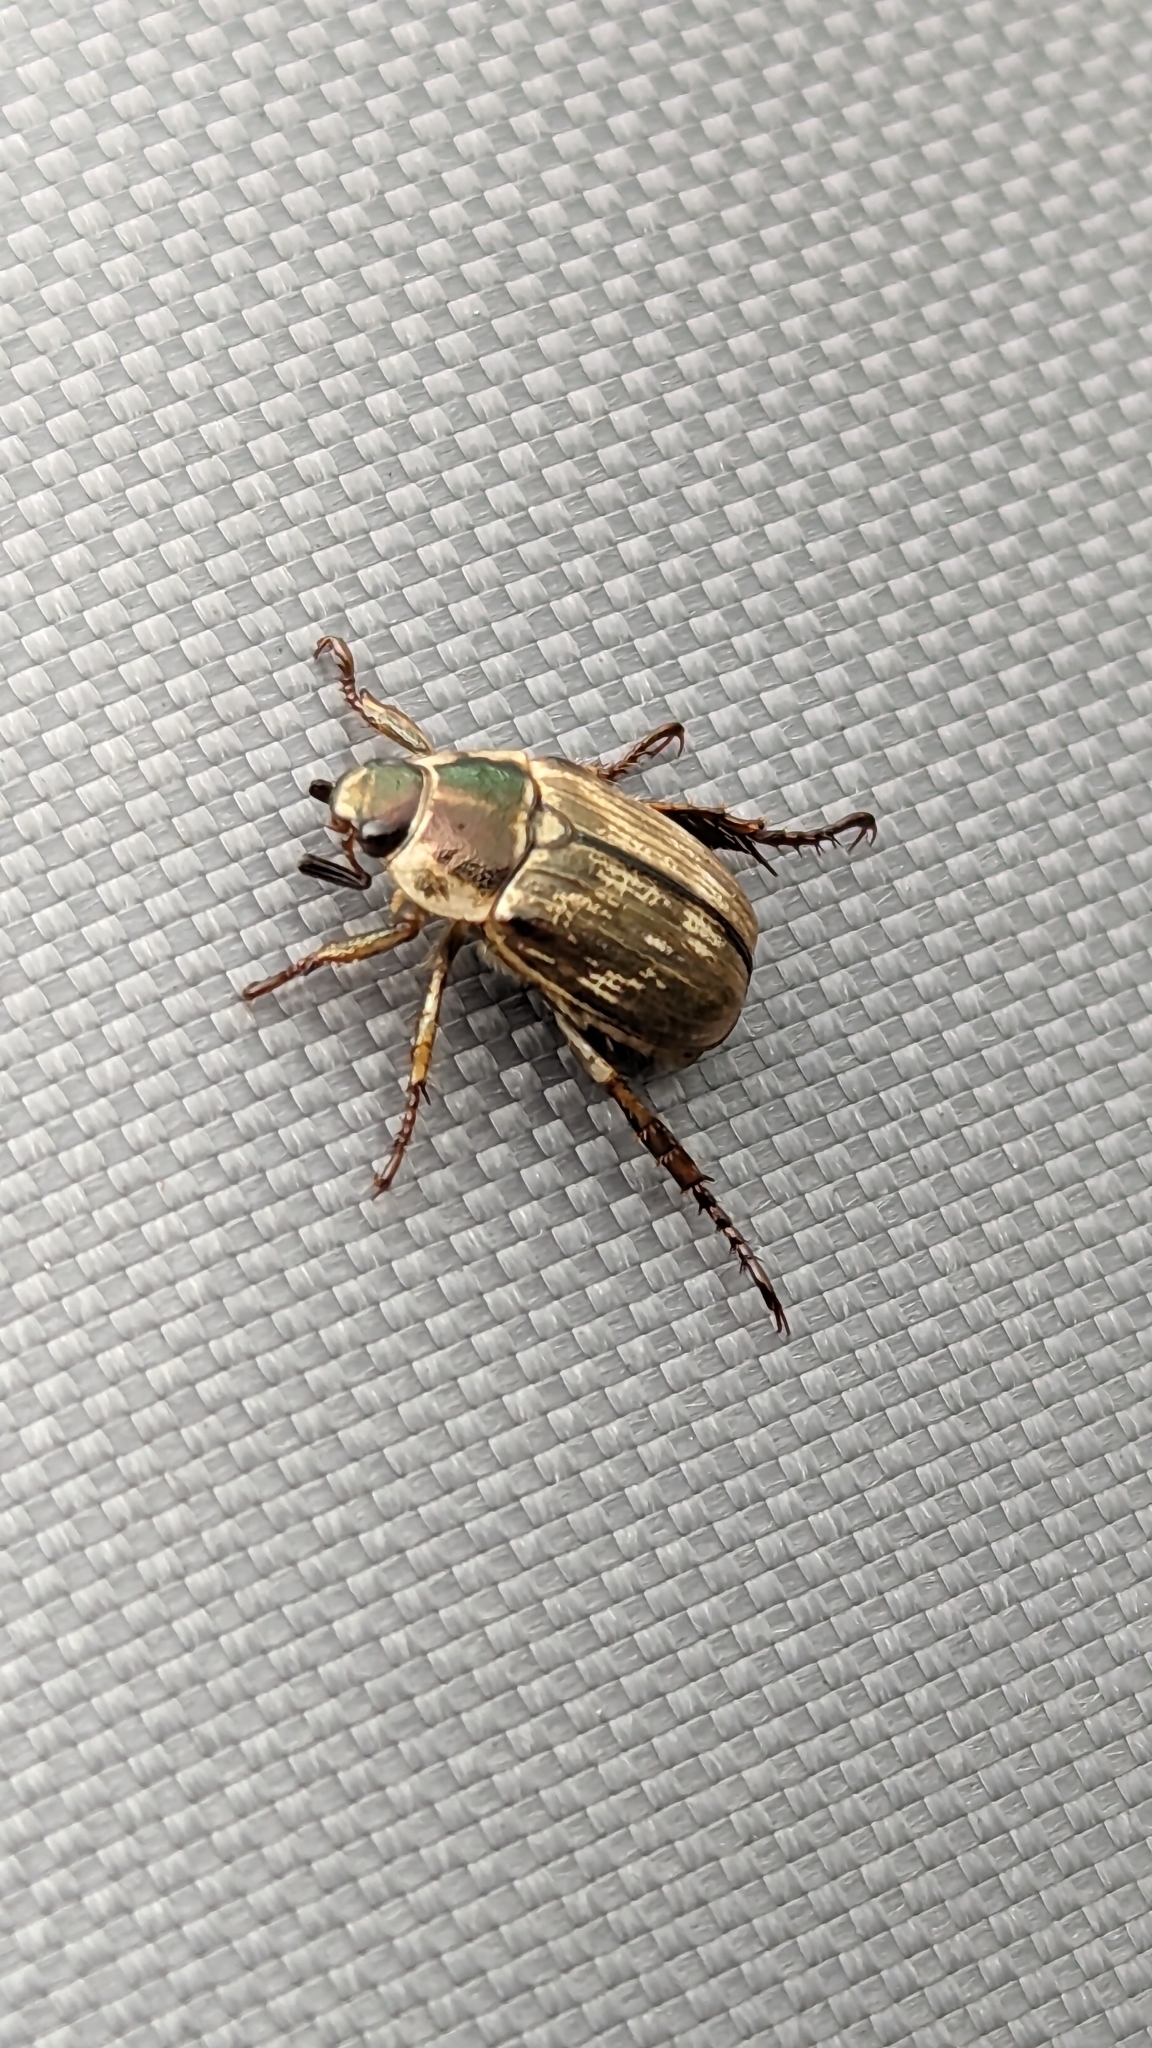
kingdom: Animalia
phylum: Arthropoda
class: Insecta
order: Coleoptera
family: Scarabaeidae
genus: Exomala
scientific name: Exomala orientalis
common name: Oriental beetle
